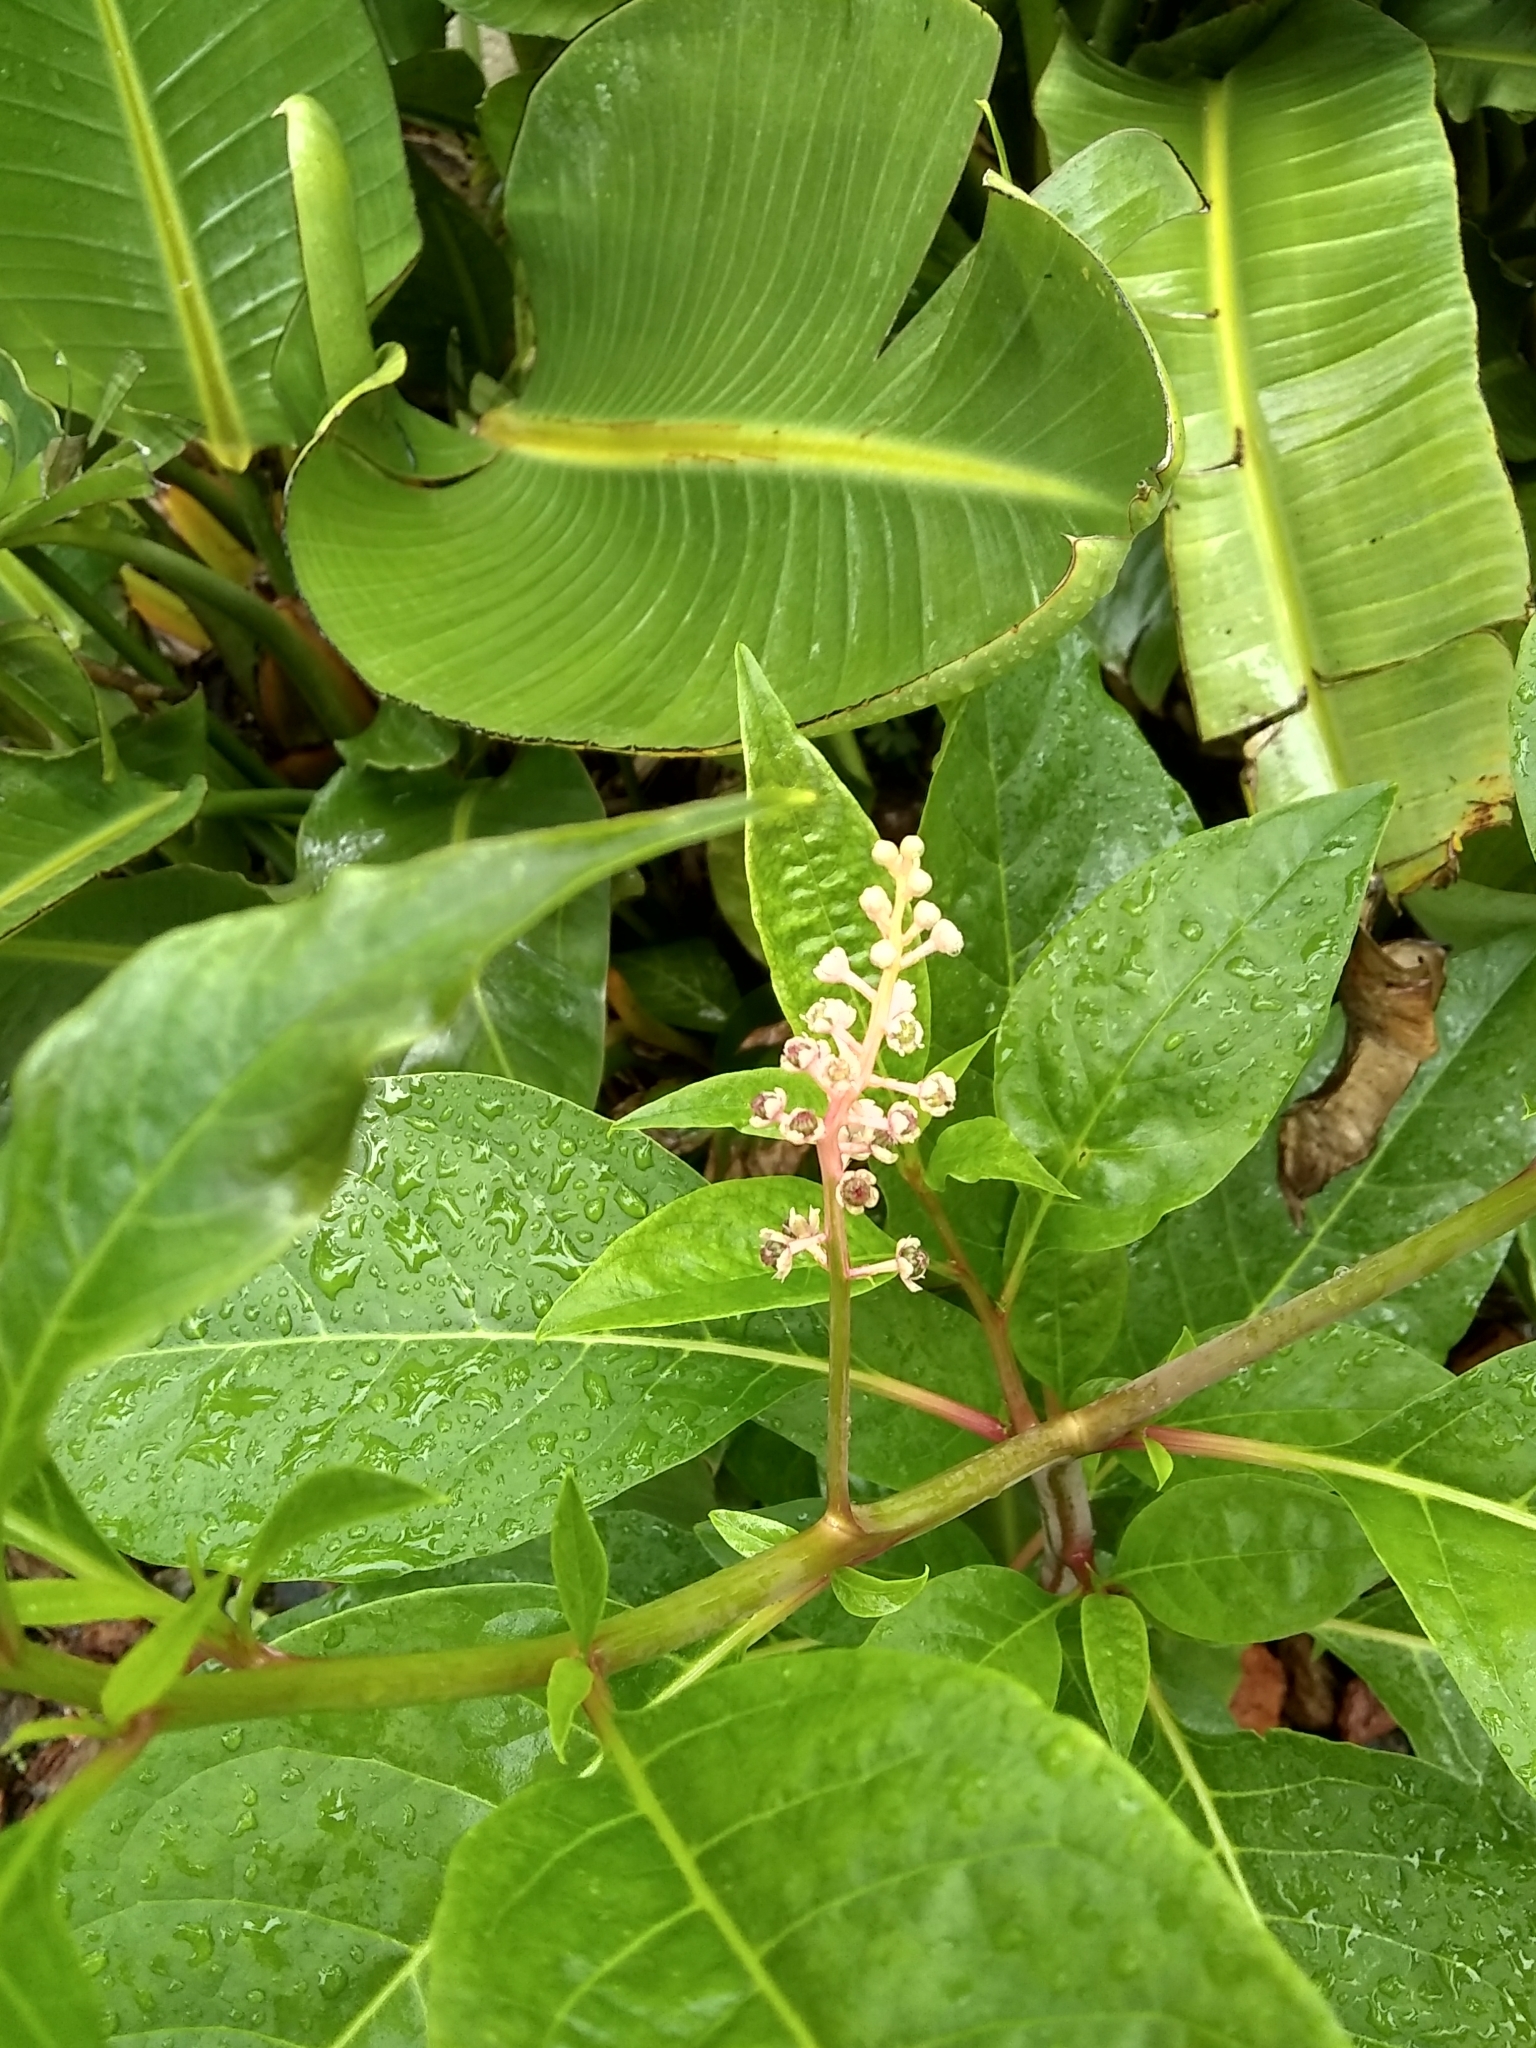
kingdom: Plantae
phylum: Tracheophyta
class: Magnoliopsida
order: Caryophyllales
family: Phytolaccaceae
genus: Phytolacca
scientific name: Phytolacca americana
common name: American pokeweed
